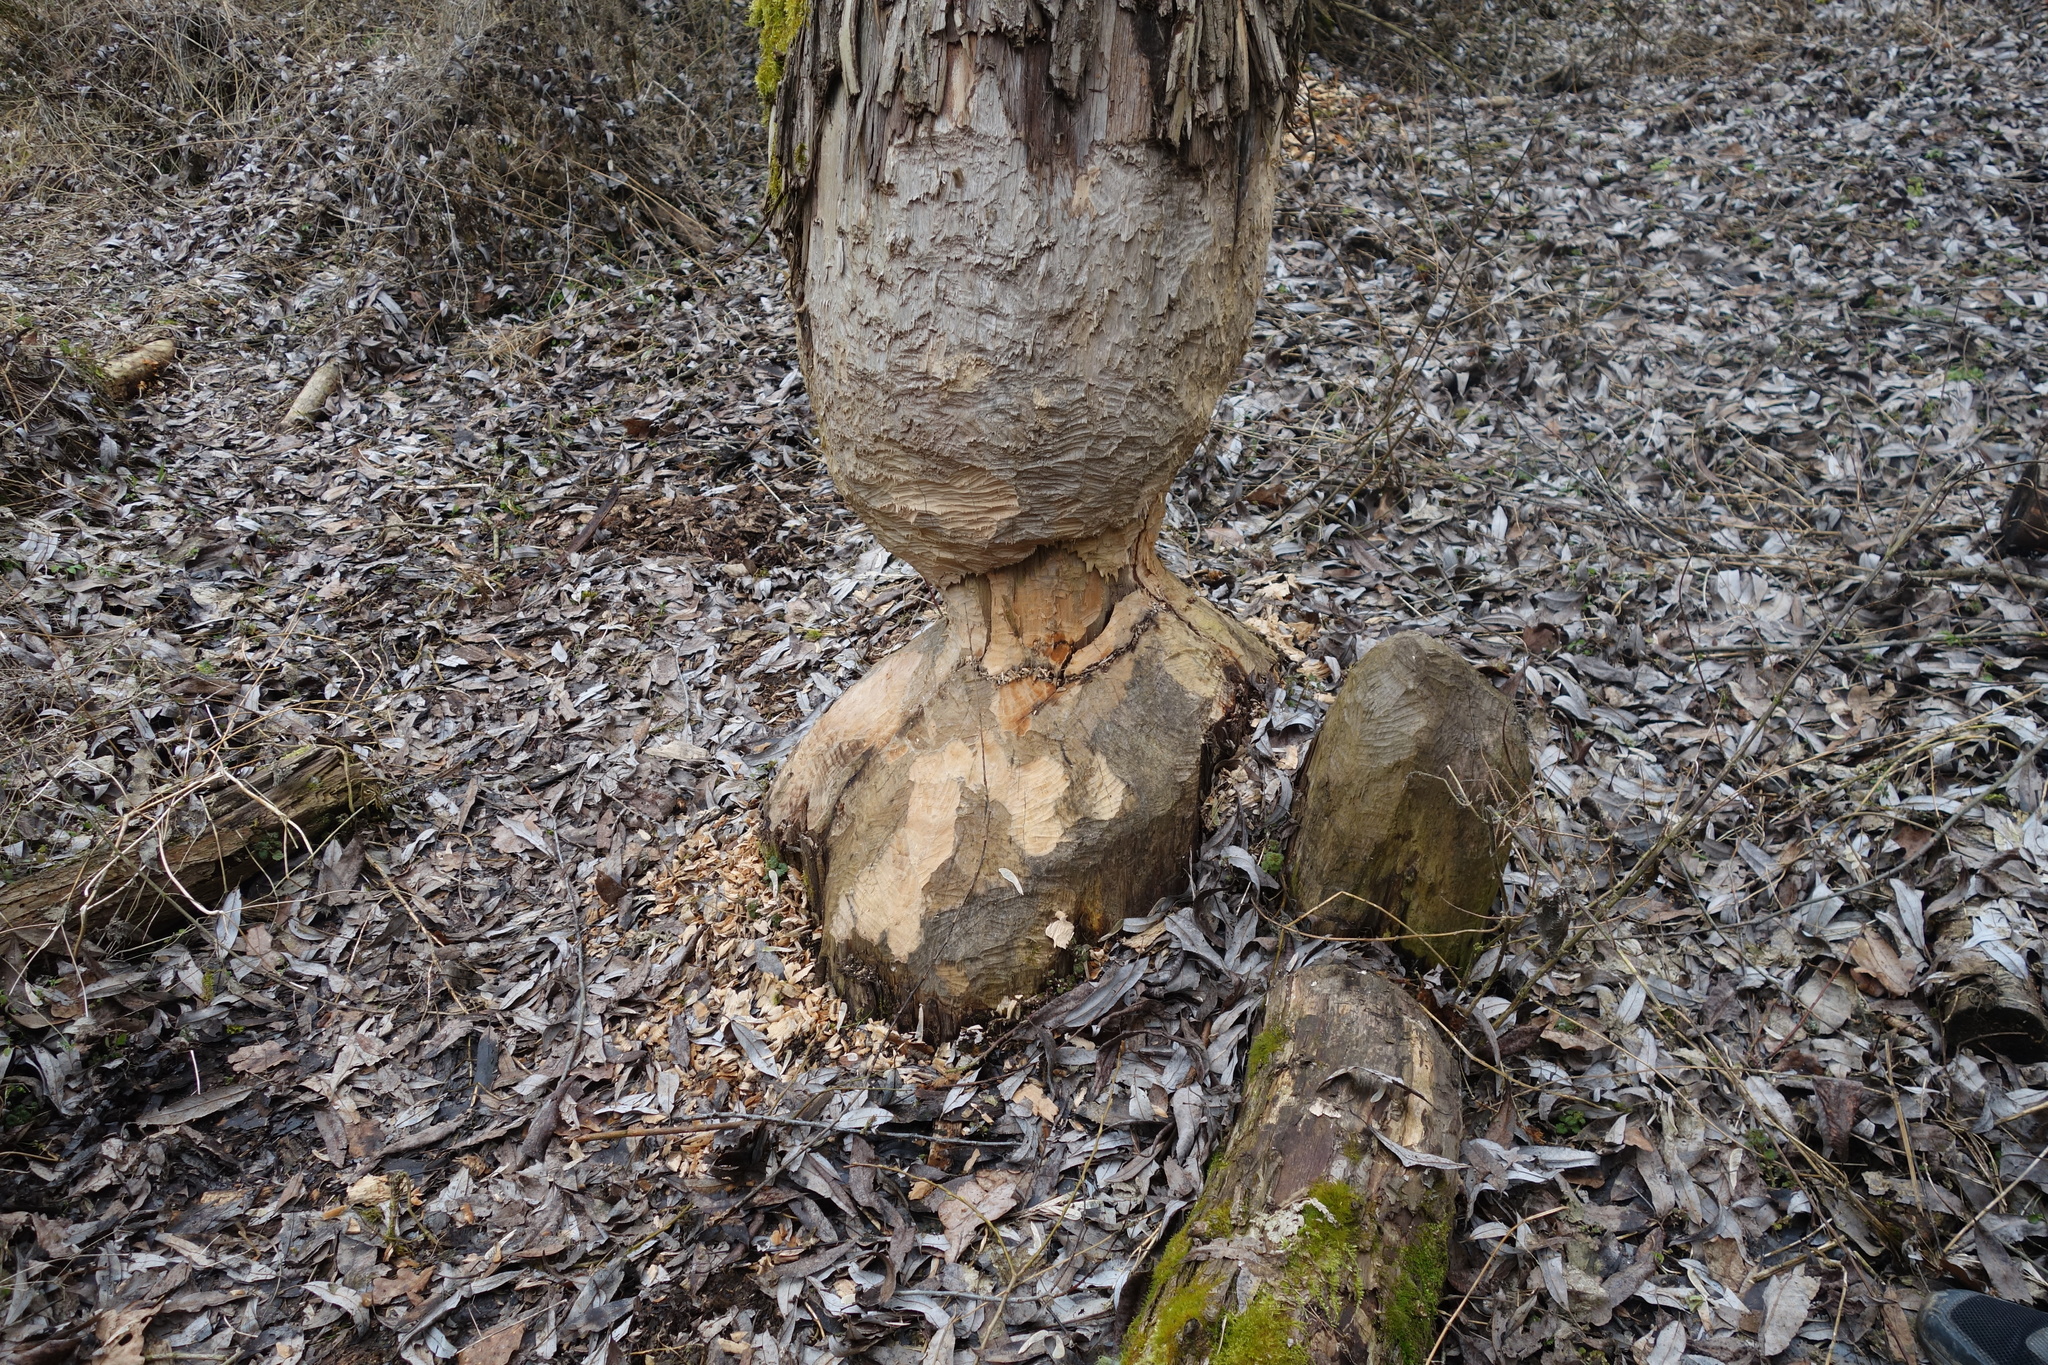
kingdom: Animalia
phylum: Chordata
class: Mammalia
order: Rodentia
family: Castoridae
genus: Castor
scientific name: Castor fiber
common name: Eurasian beaver
